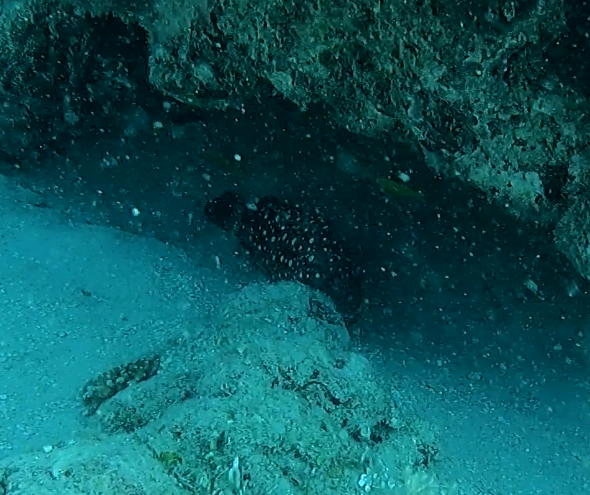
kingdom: Animalia
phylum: Chordata
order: Perciformes
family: Serranidae
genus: Epinephelus
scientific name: Epinephelus coeruleopunctatus
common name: Whitespotted grouper
